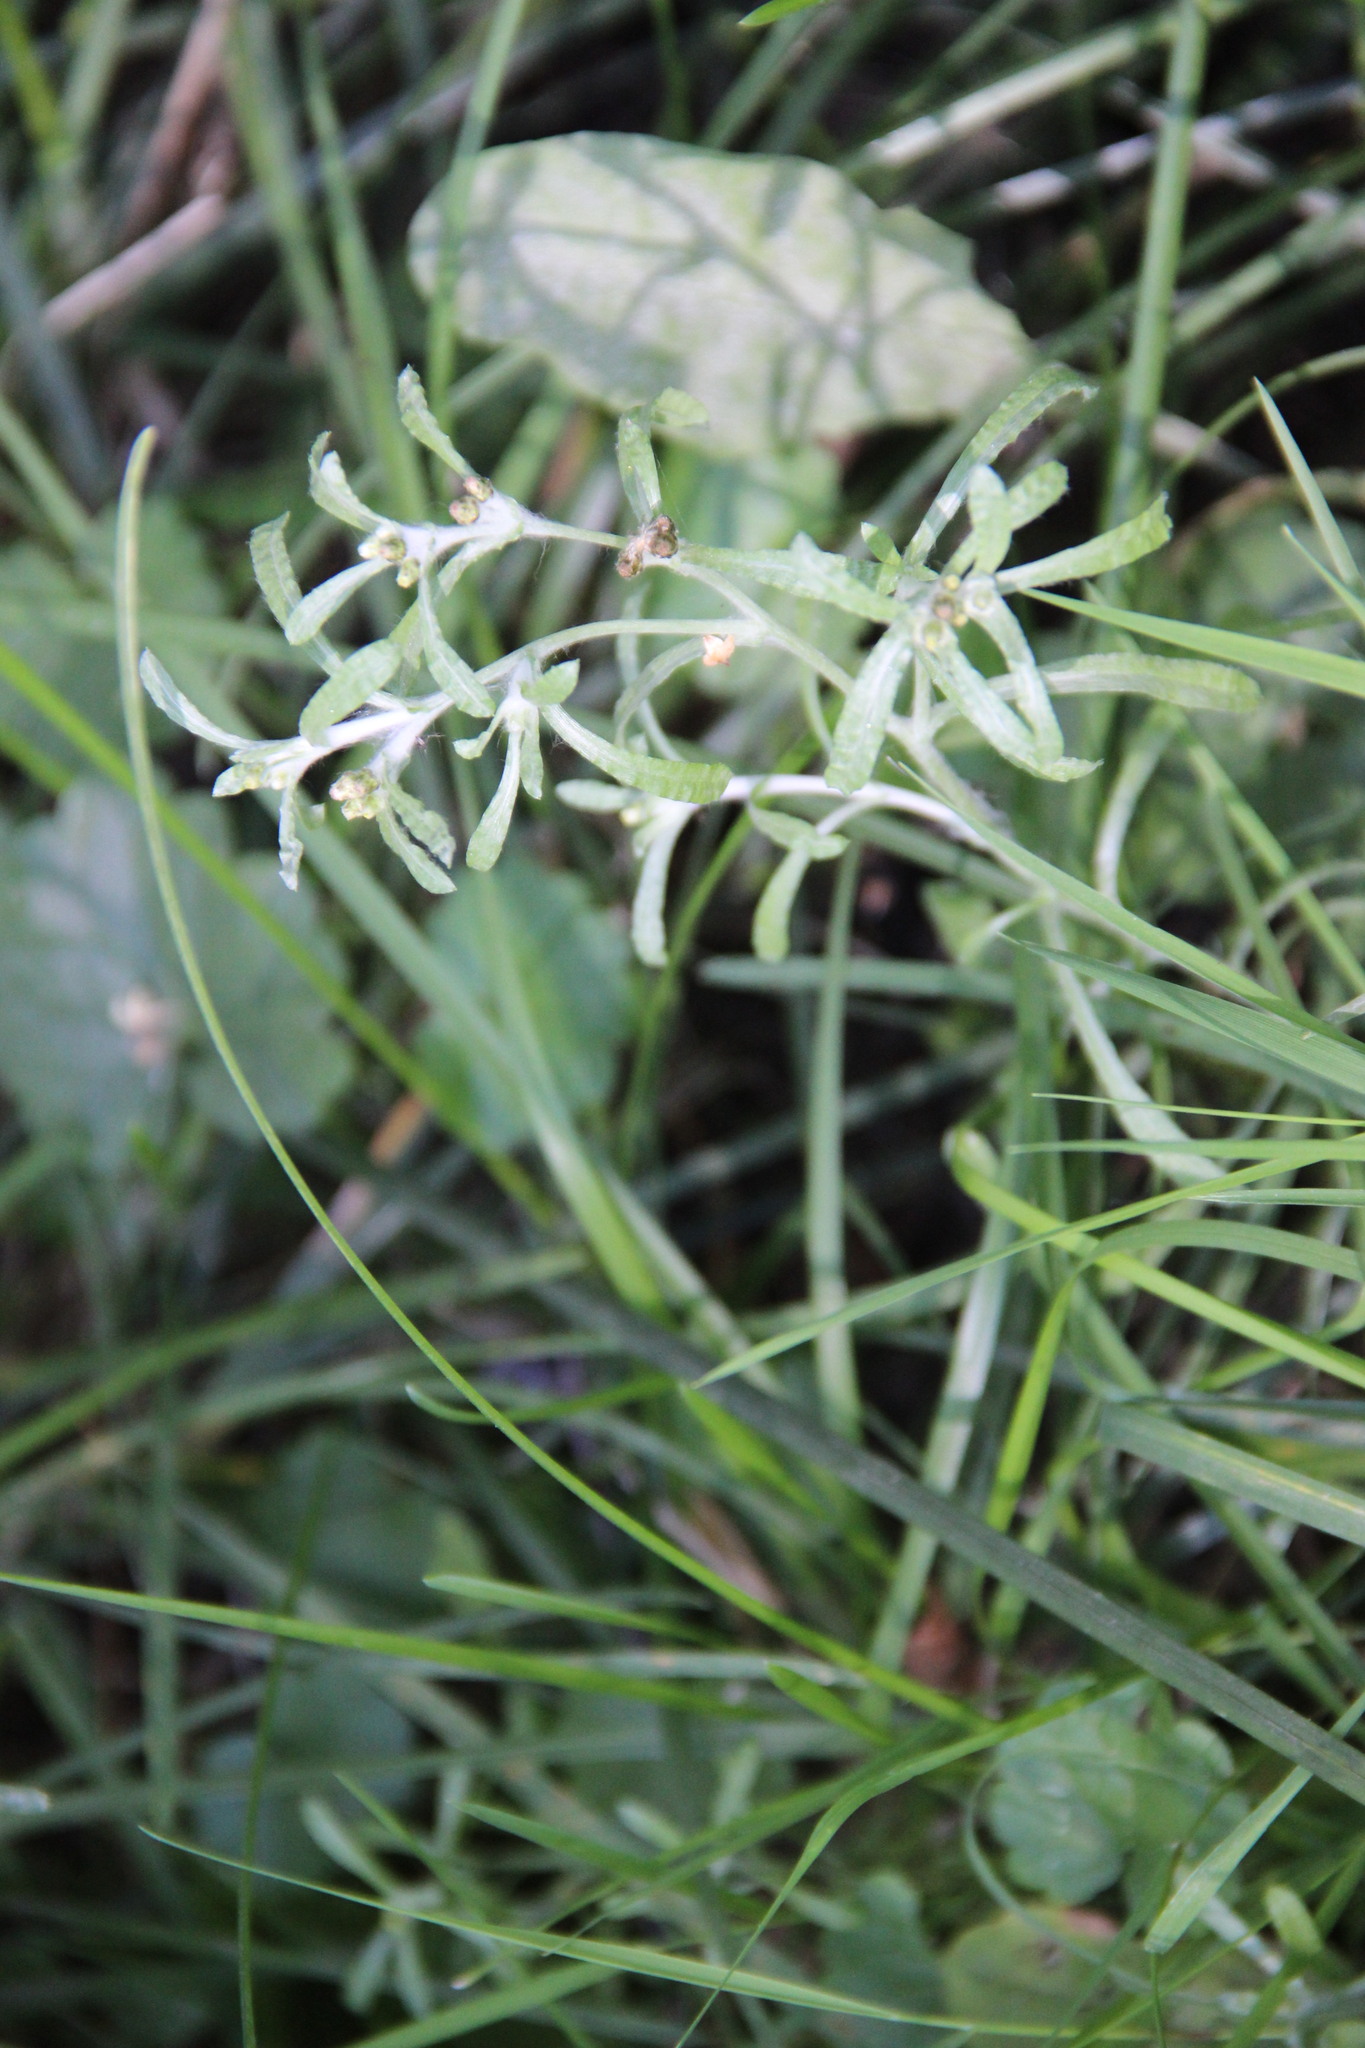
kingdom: Plantae
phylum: Tracheophyta
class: Magnoliopsida
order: Asterales
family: Asteraceae
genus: Gnaphalium
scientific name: Gnaphalium uliginosum
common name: Marsh cudweed
